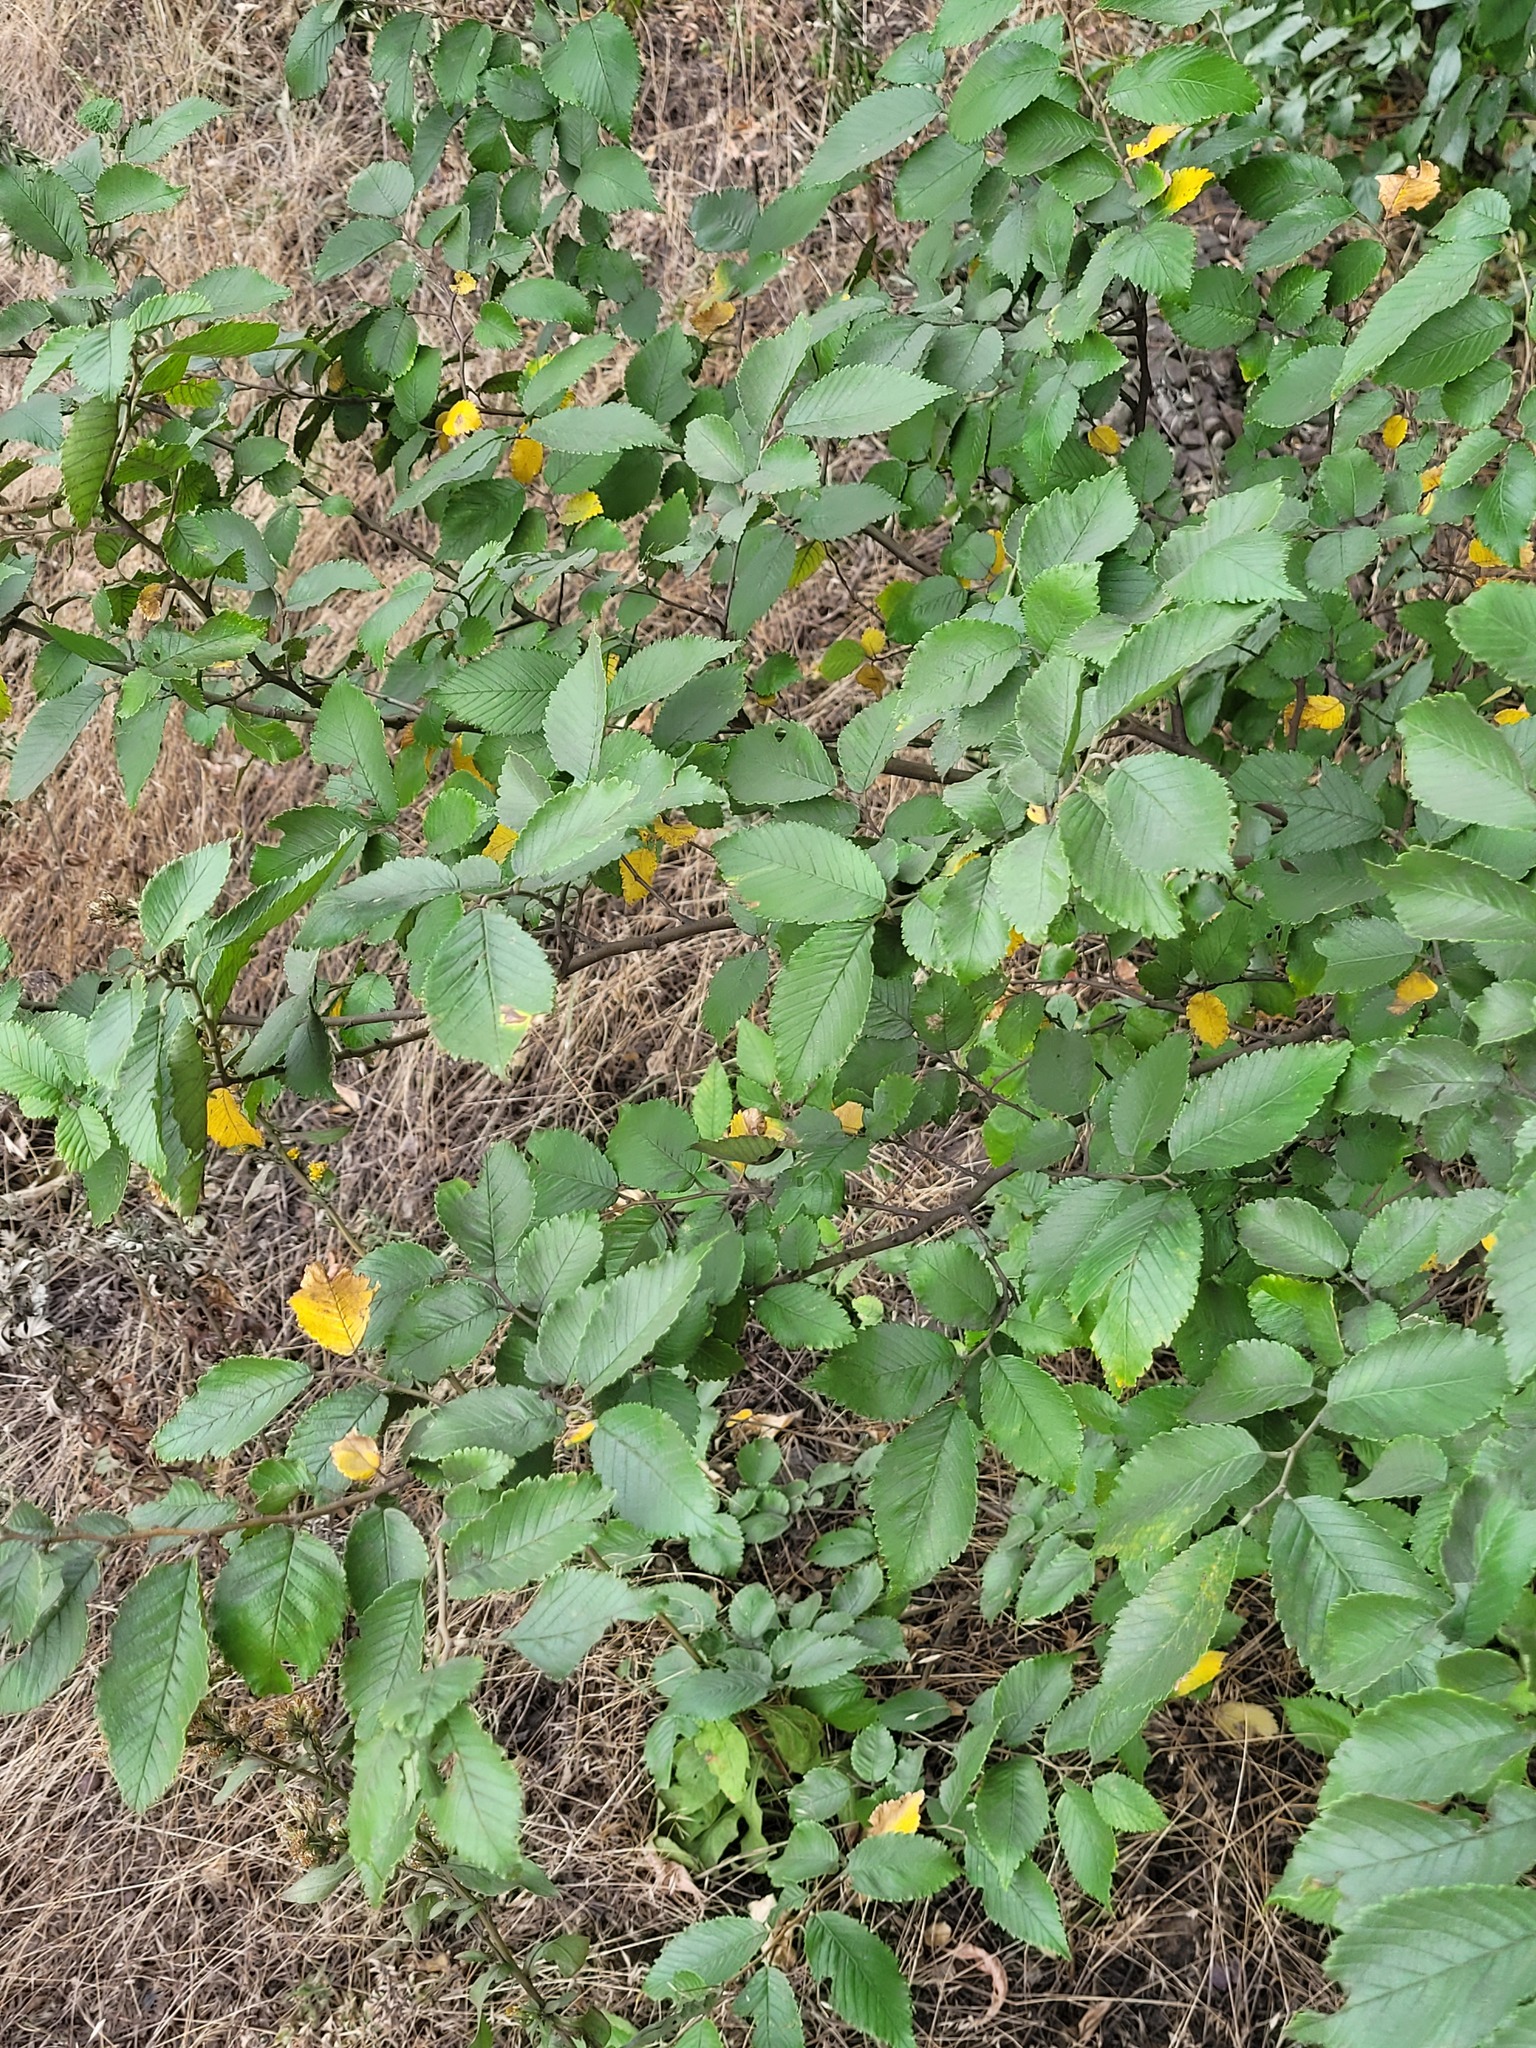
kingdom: Plantae
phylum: Tracheophyta
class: Magnoliopsida
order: Rosales
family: Ulmaceae
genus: Ulmus
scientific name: Ulmus minor
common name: Small-leaved elm
